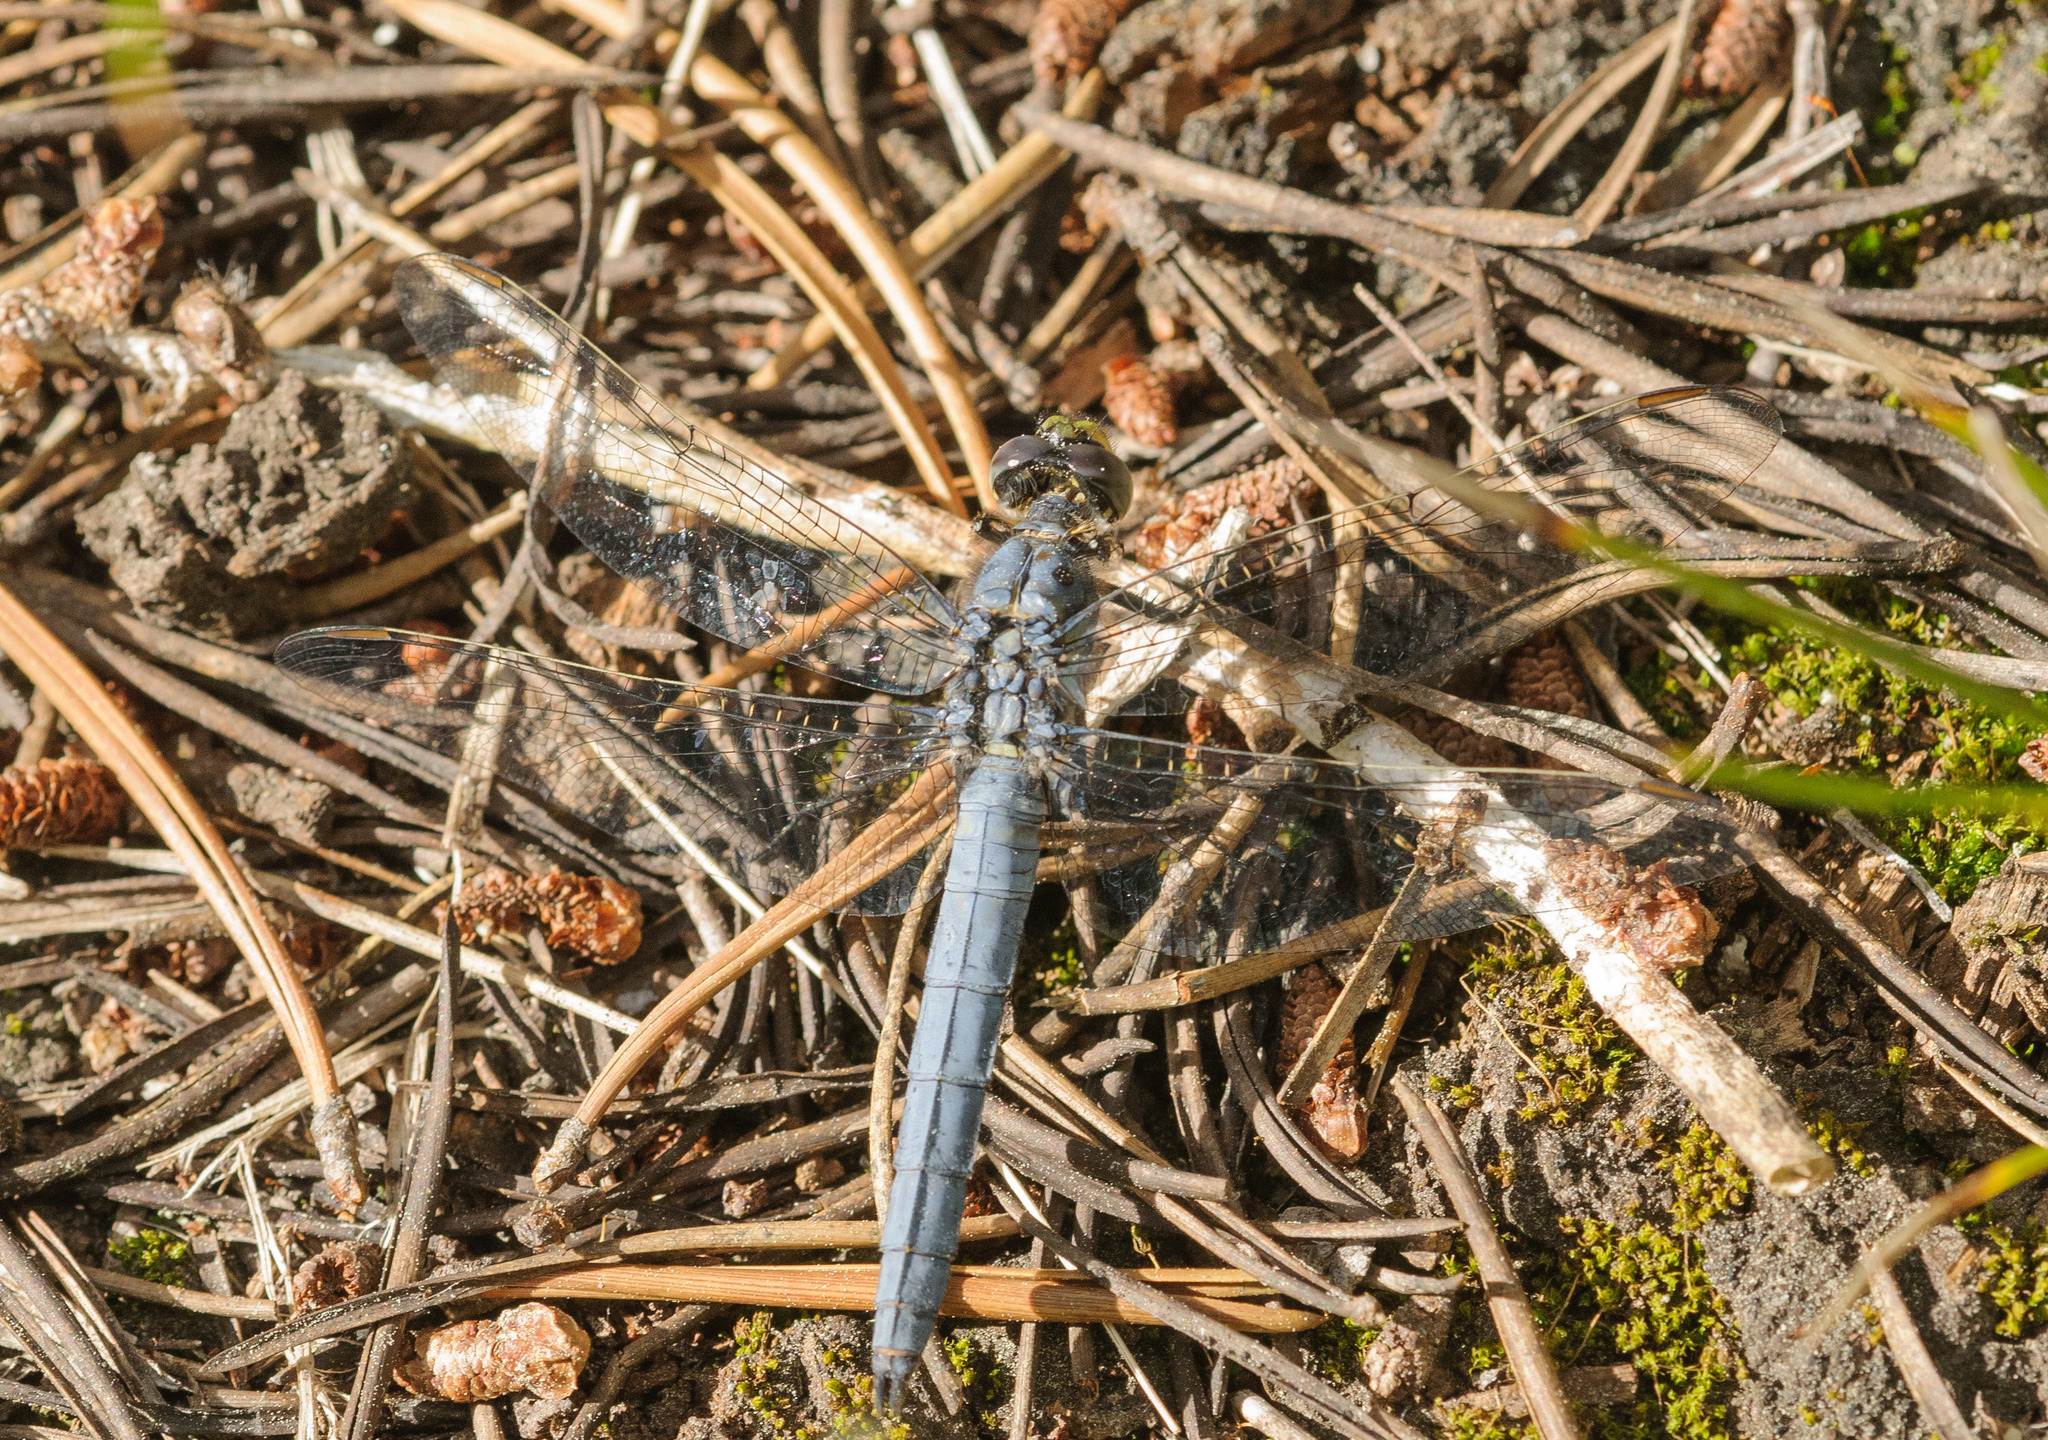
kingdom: Animalia
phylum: Arthropoda
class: Insecta
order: Odonata
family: Libellulidae
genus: Erythemis
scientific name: Erythemis collocata
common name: Western pondhawk
